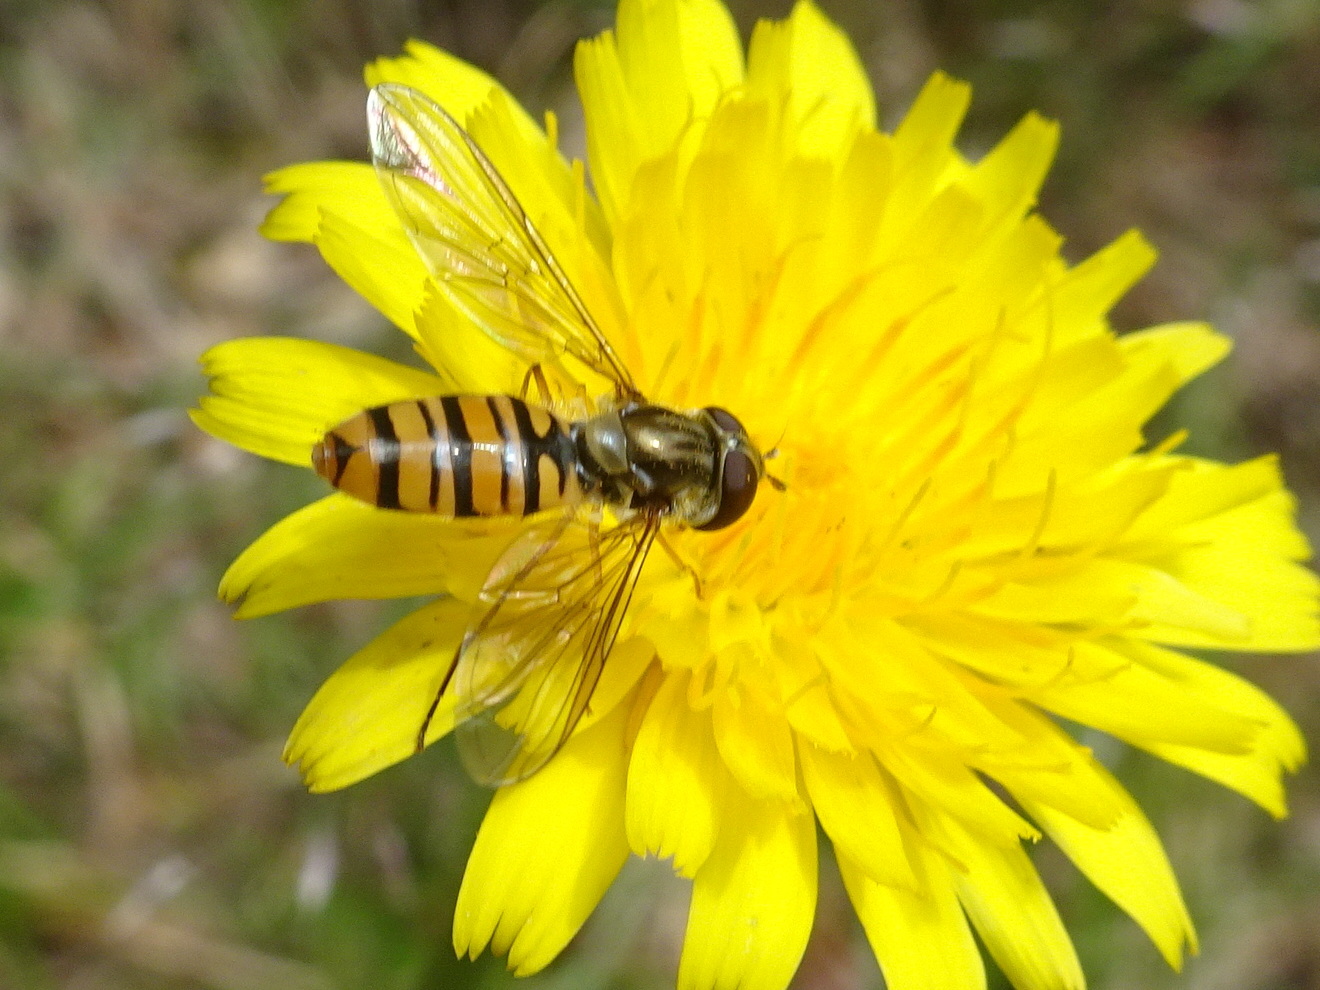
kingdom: Animalia
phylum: Arthropoda
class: Insecta
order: Diptera
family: Syrphidae
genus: Episyrphus
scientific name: Episyrphus balteatus
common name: Marmalade hoverfly
